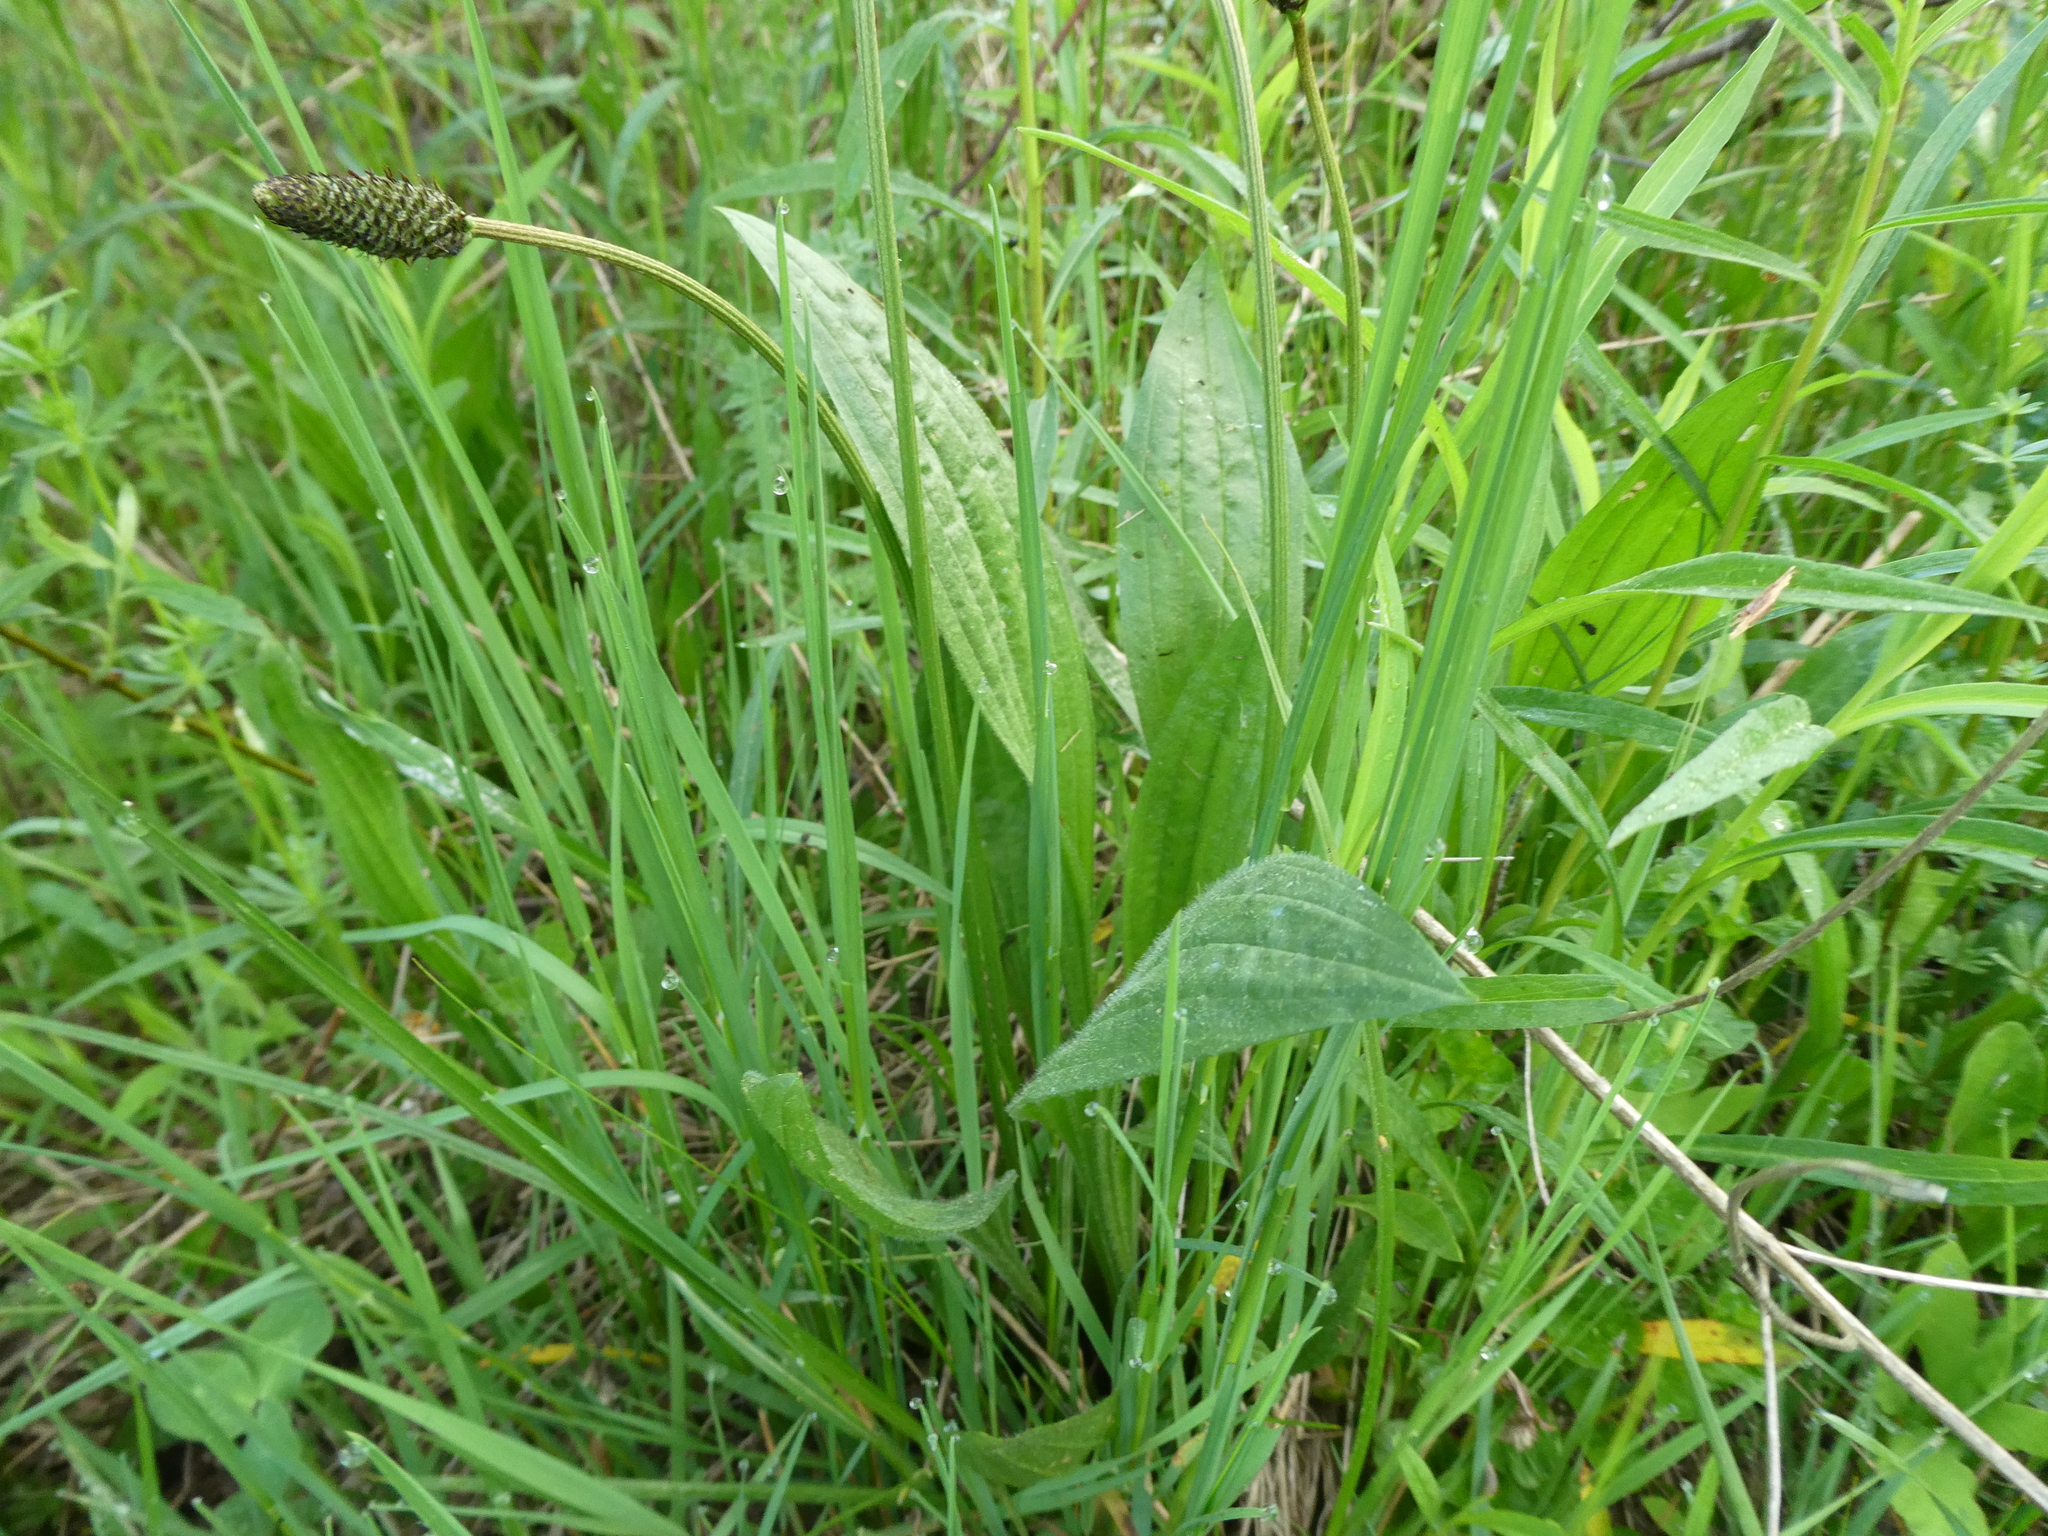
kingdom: Plantae
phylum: Tracheophyta
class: Magnoliopsida
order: Lamiales
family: Plantaginaceae
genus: Plantago
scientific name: Plantago lanceolata
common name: Ribwort plantain
